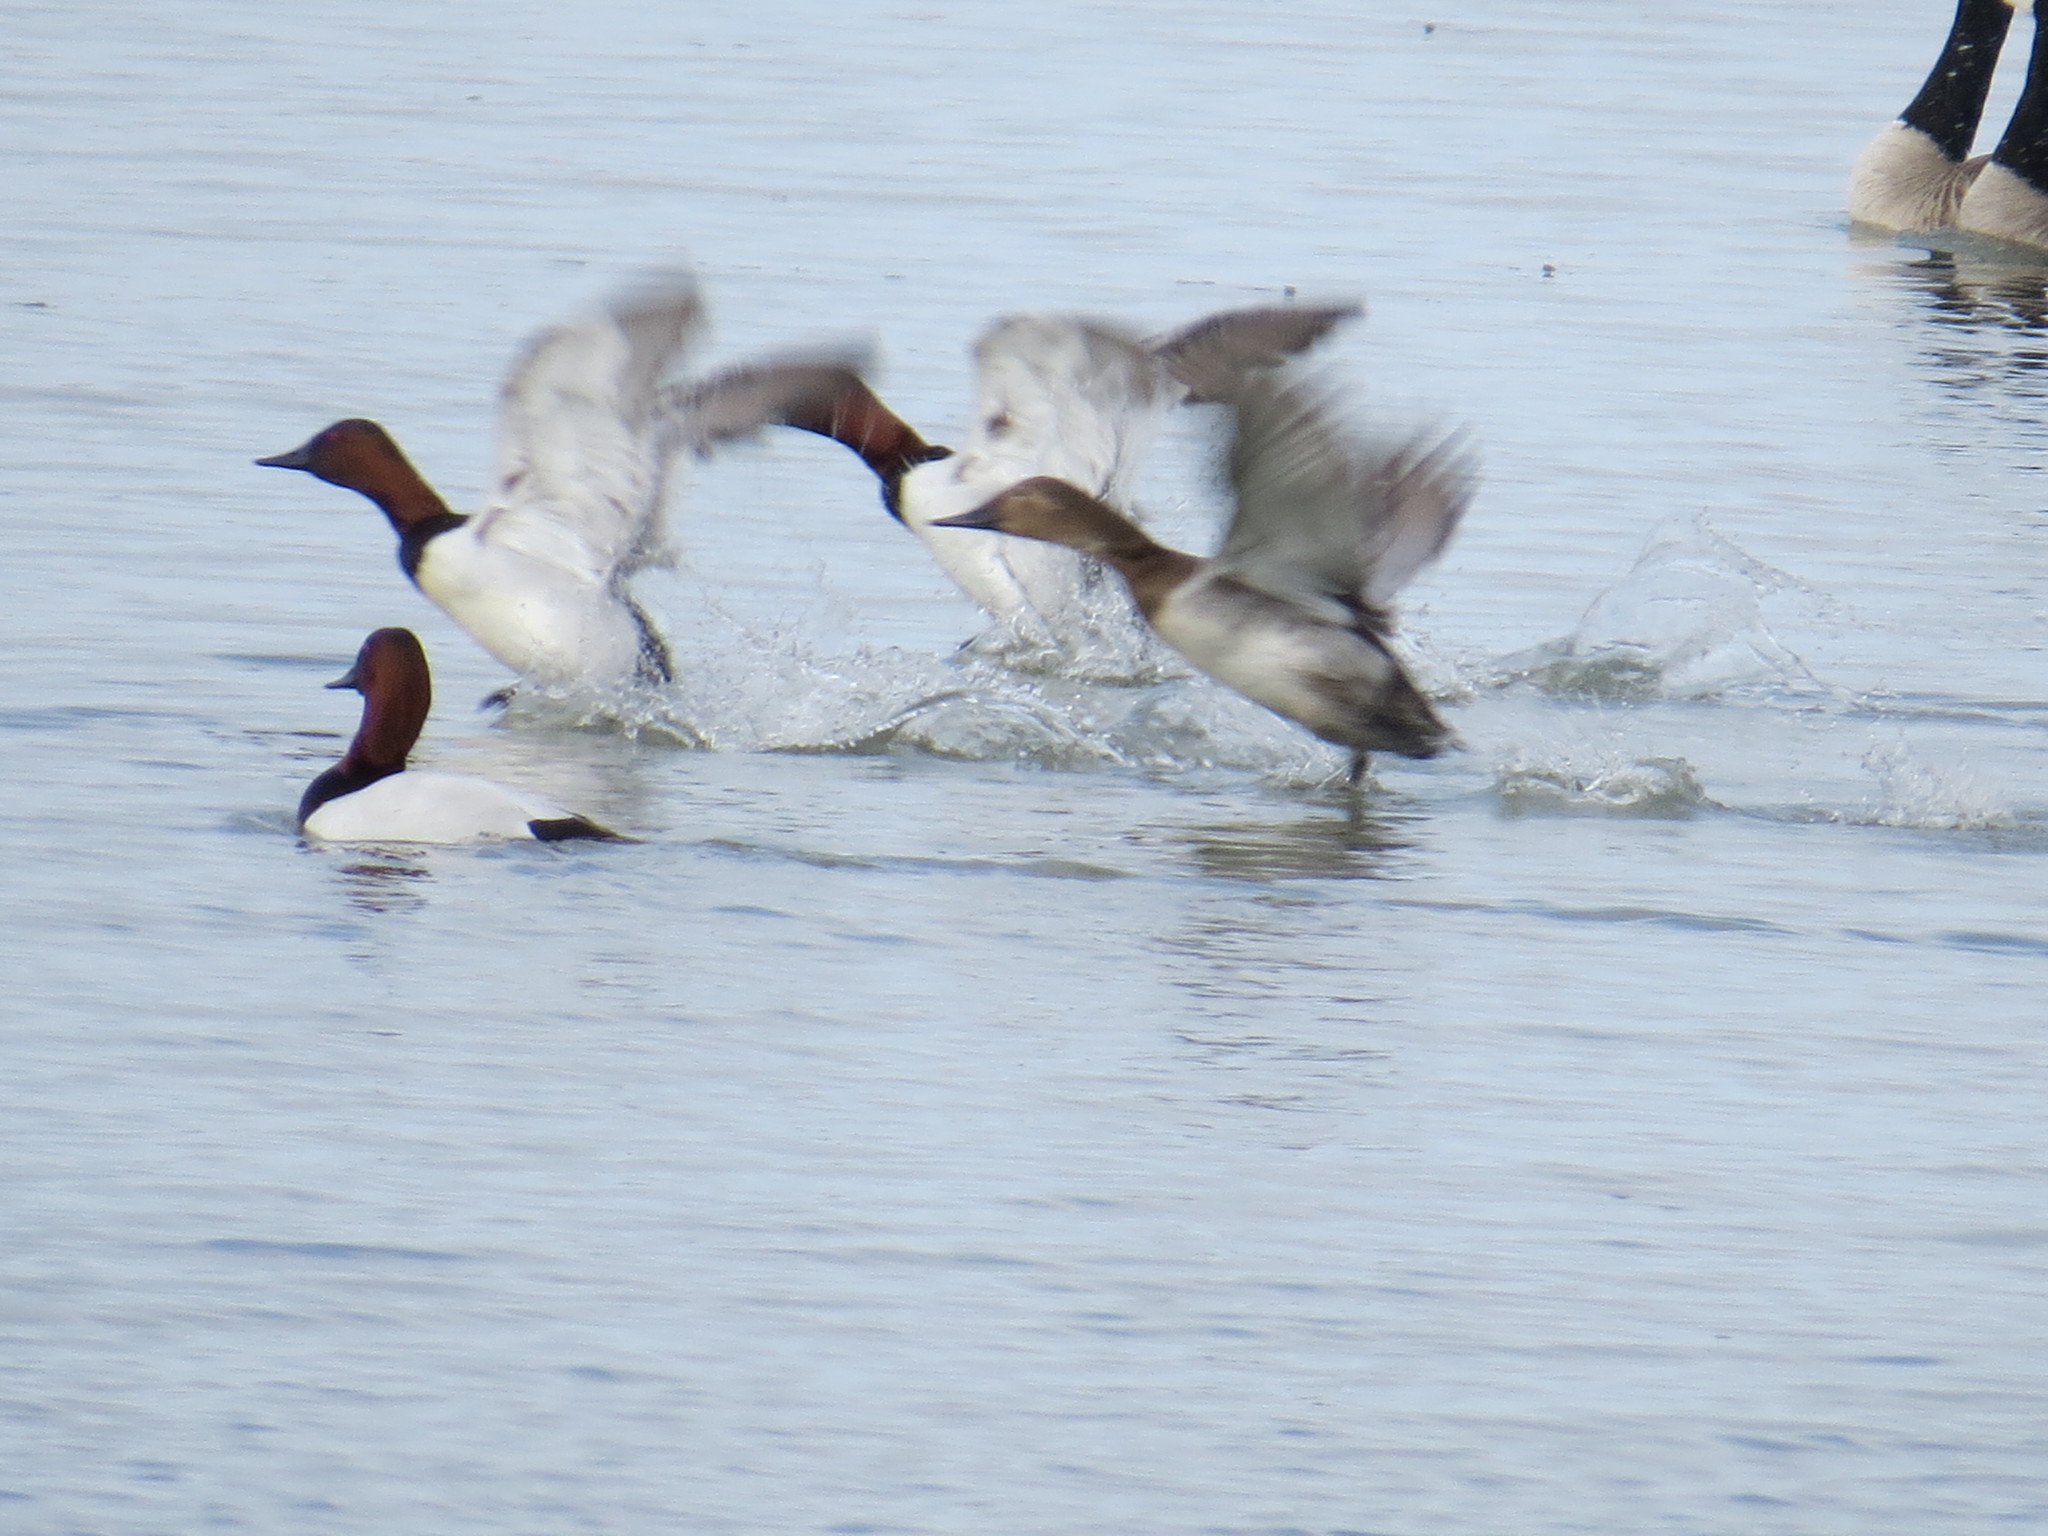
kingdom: Animalia
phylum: Chordata
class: Aves
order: Anseriformes
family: Anatidae
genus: Aythya
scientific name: Aythya valisineria
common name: Canvasback
